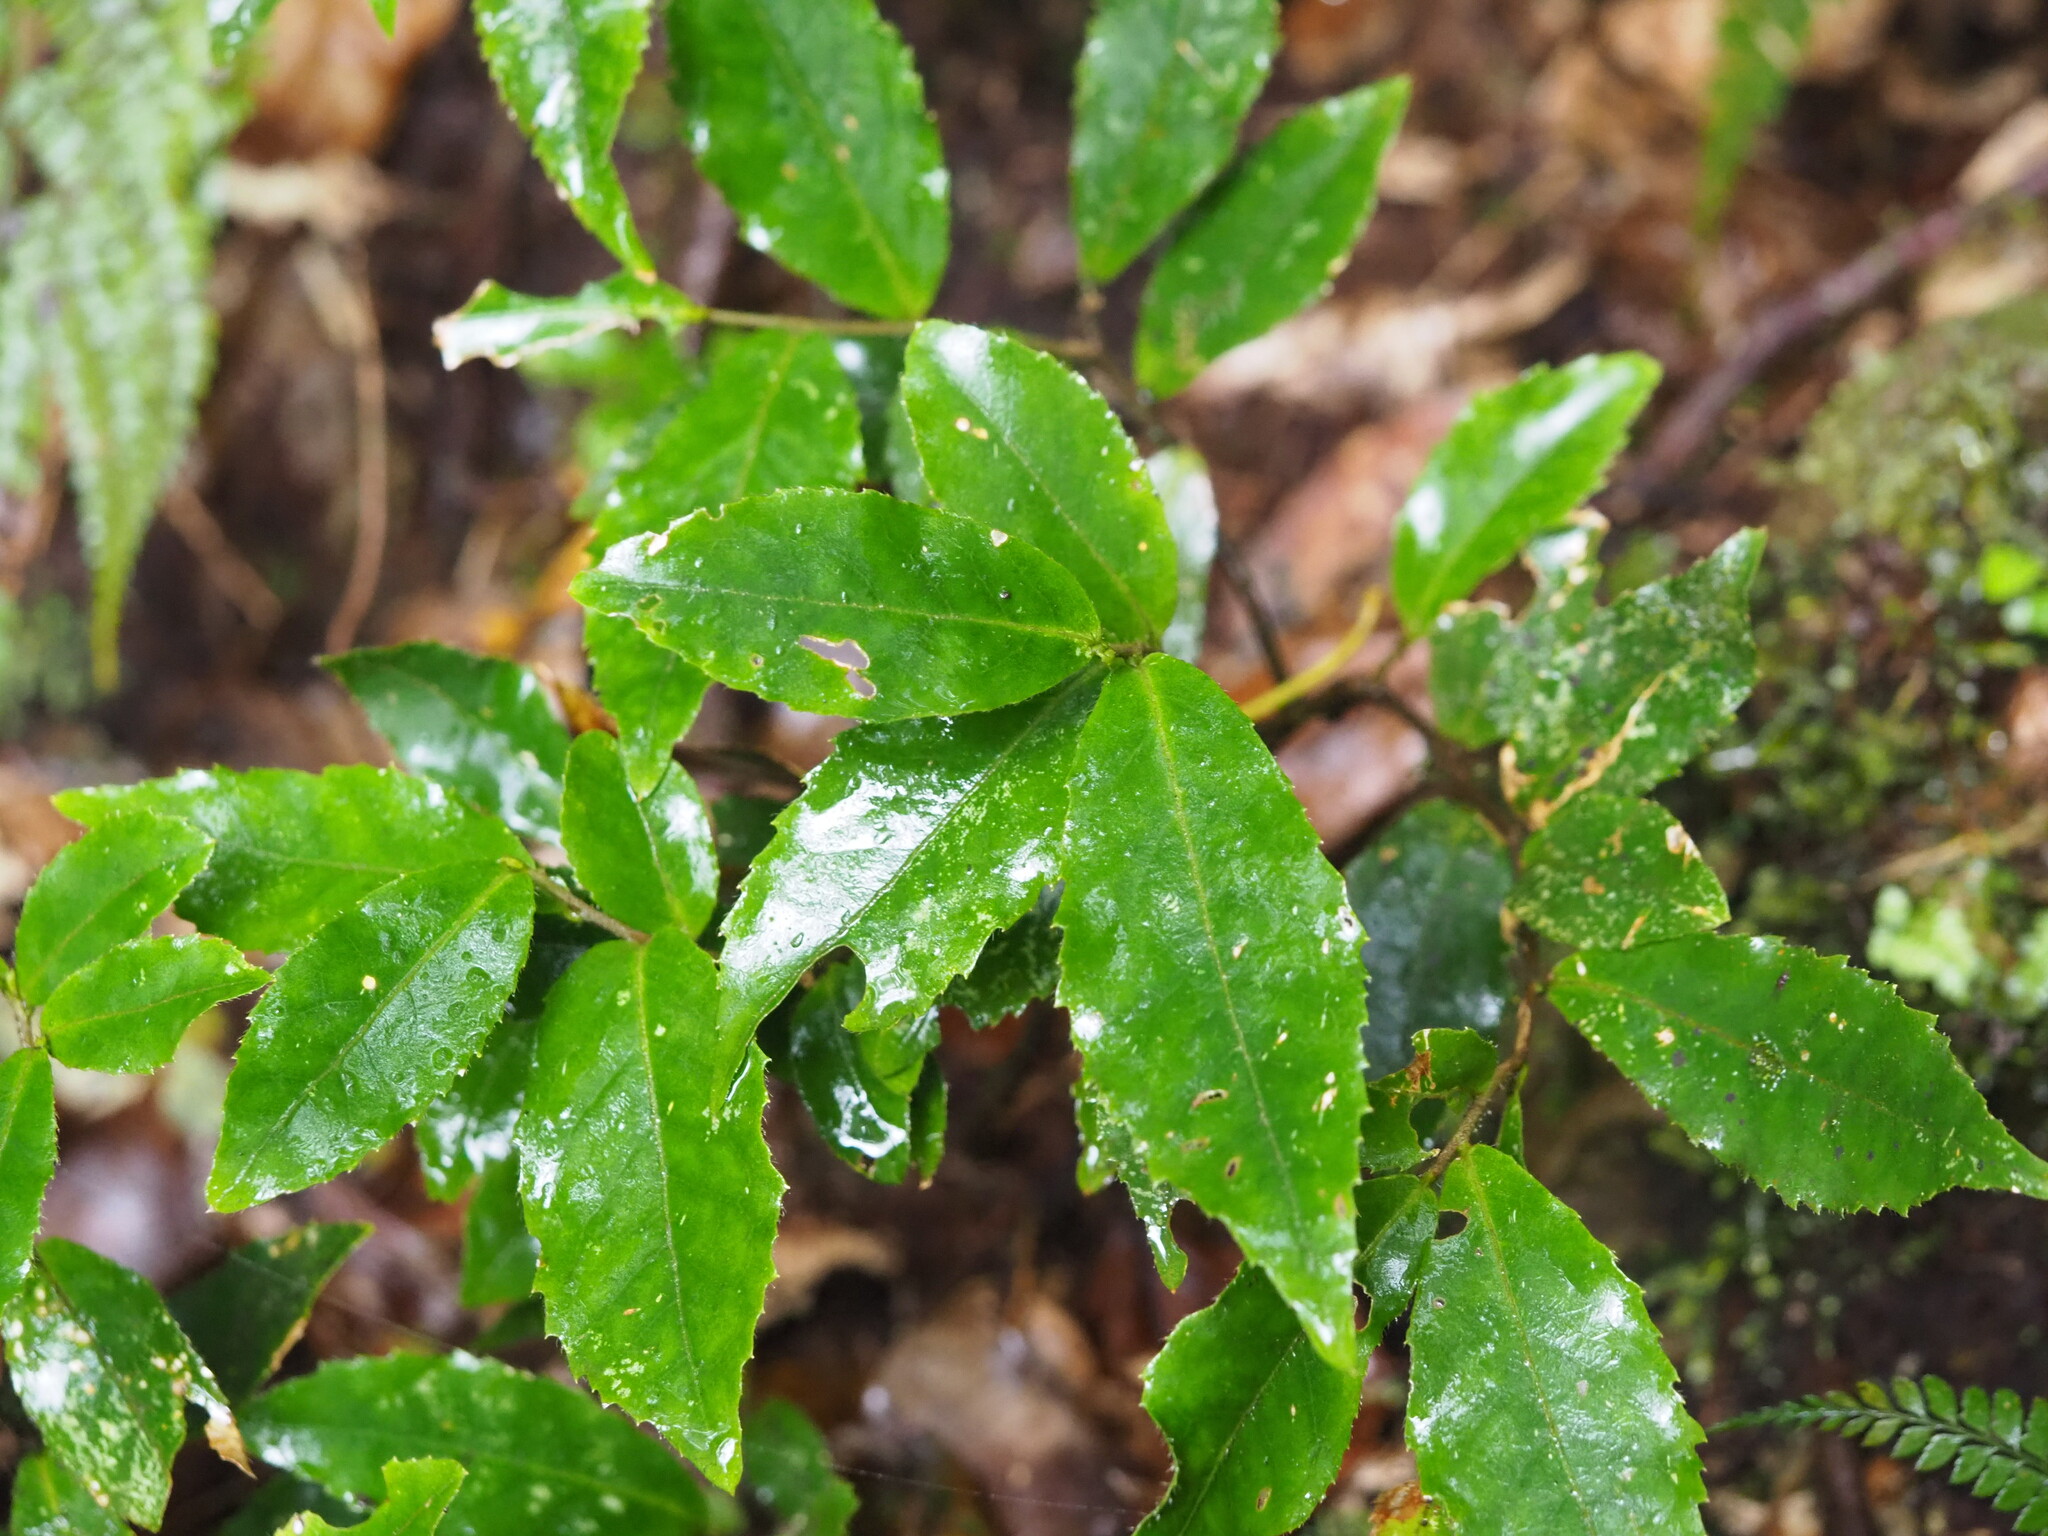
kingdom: Plantae
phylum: Tracheophyta
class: Magnoliopsida
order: Ericales
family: Symplocaceae
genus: Symplocos
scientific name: Symplocos lancifolia
